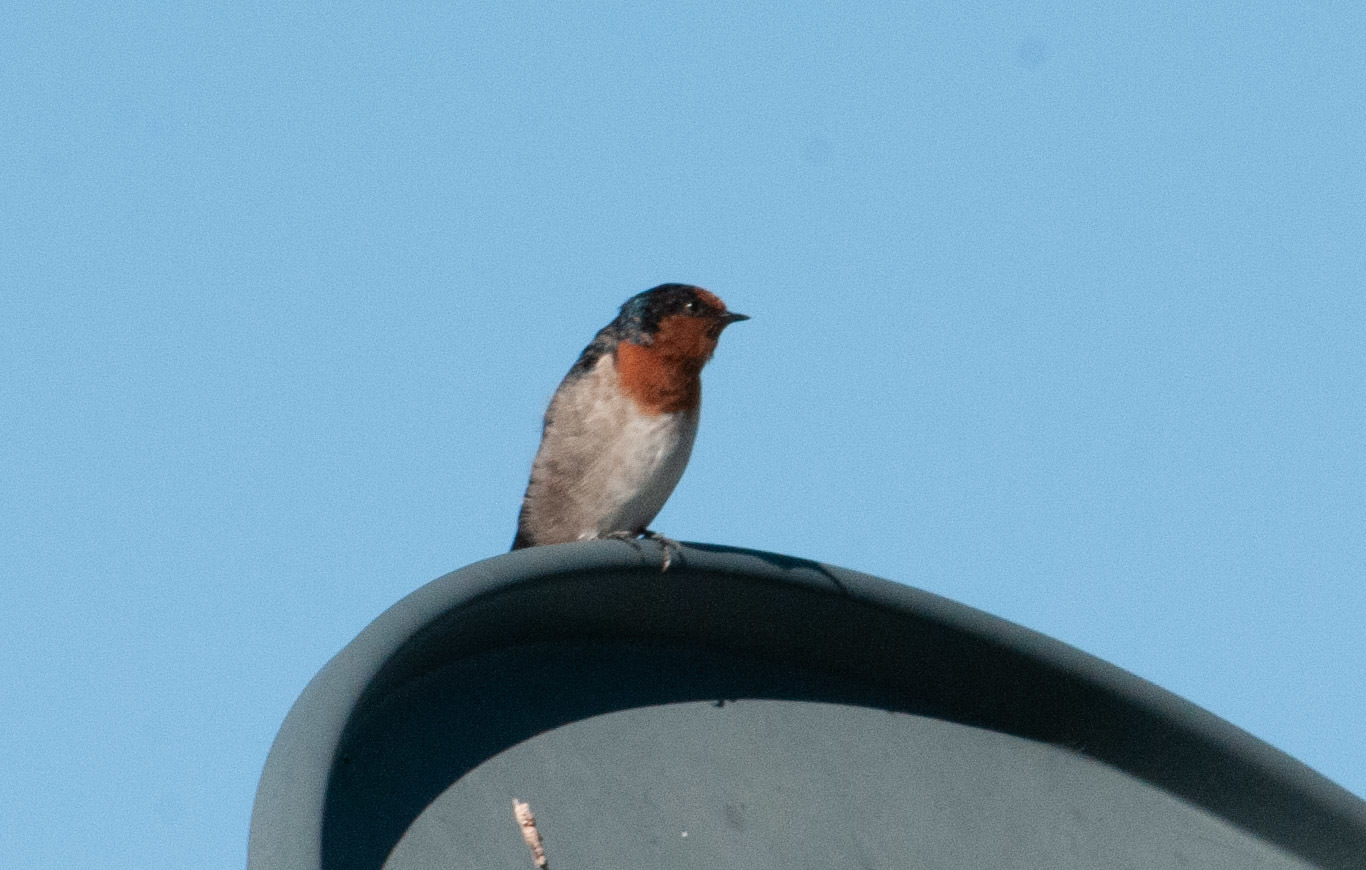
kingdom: Animalia
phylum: Chordata
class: Aves
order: Passeriformes
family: Hirundinidae
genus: Hirundo
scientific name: Hirundo neoxena
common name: Welcome swallow
